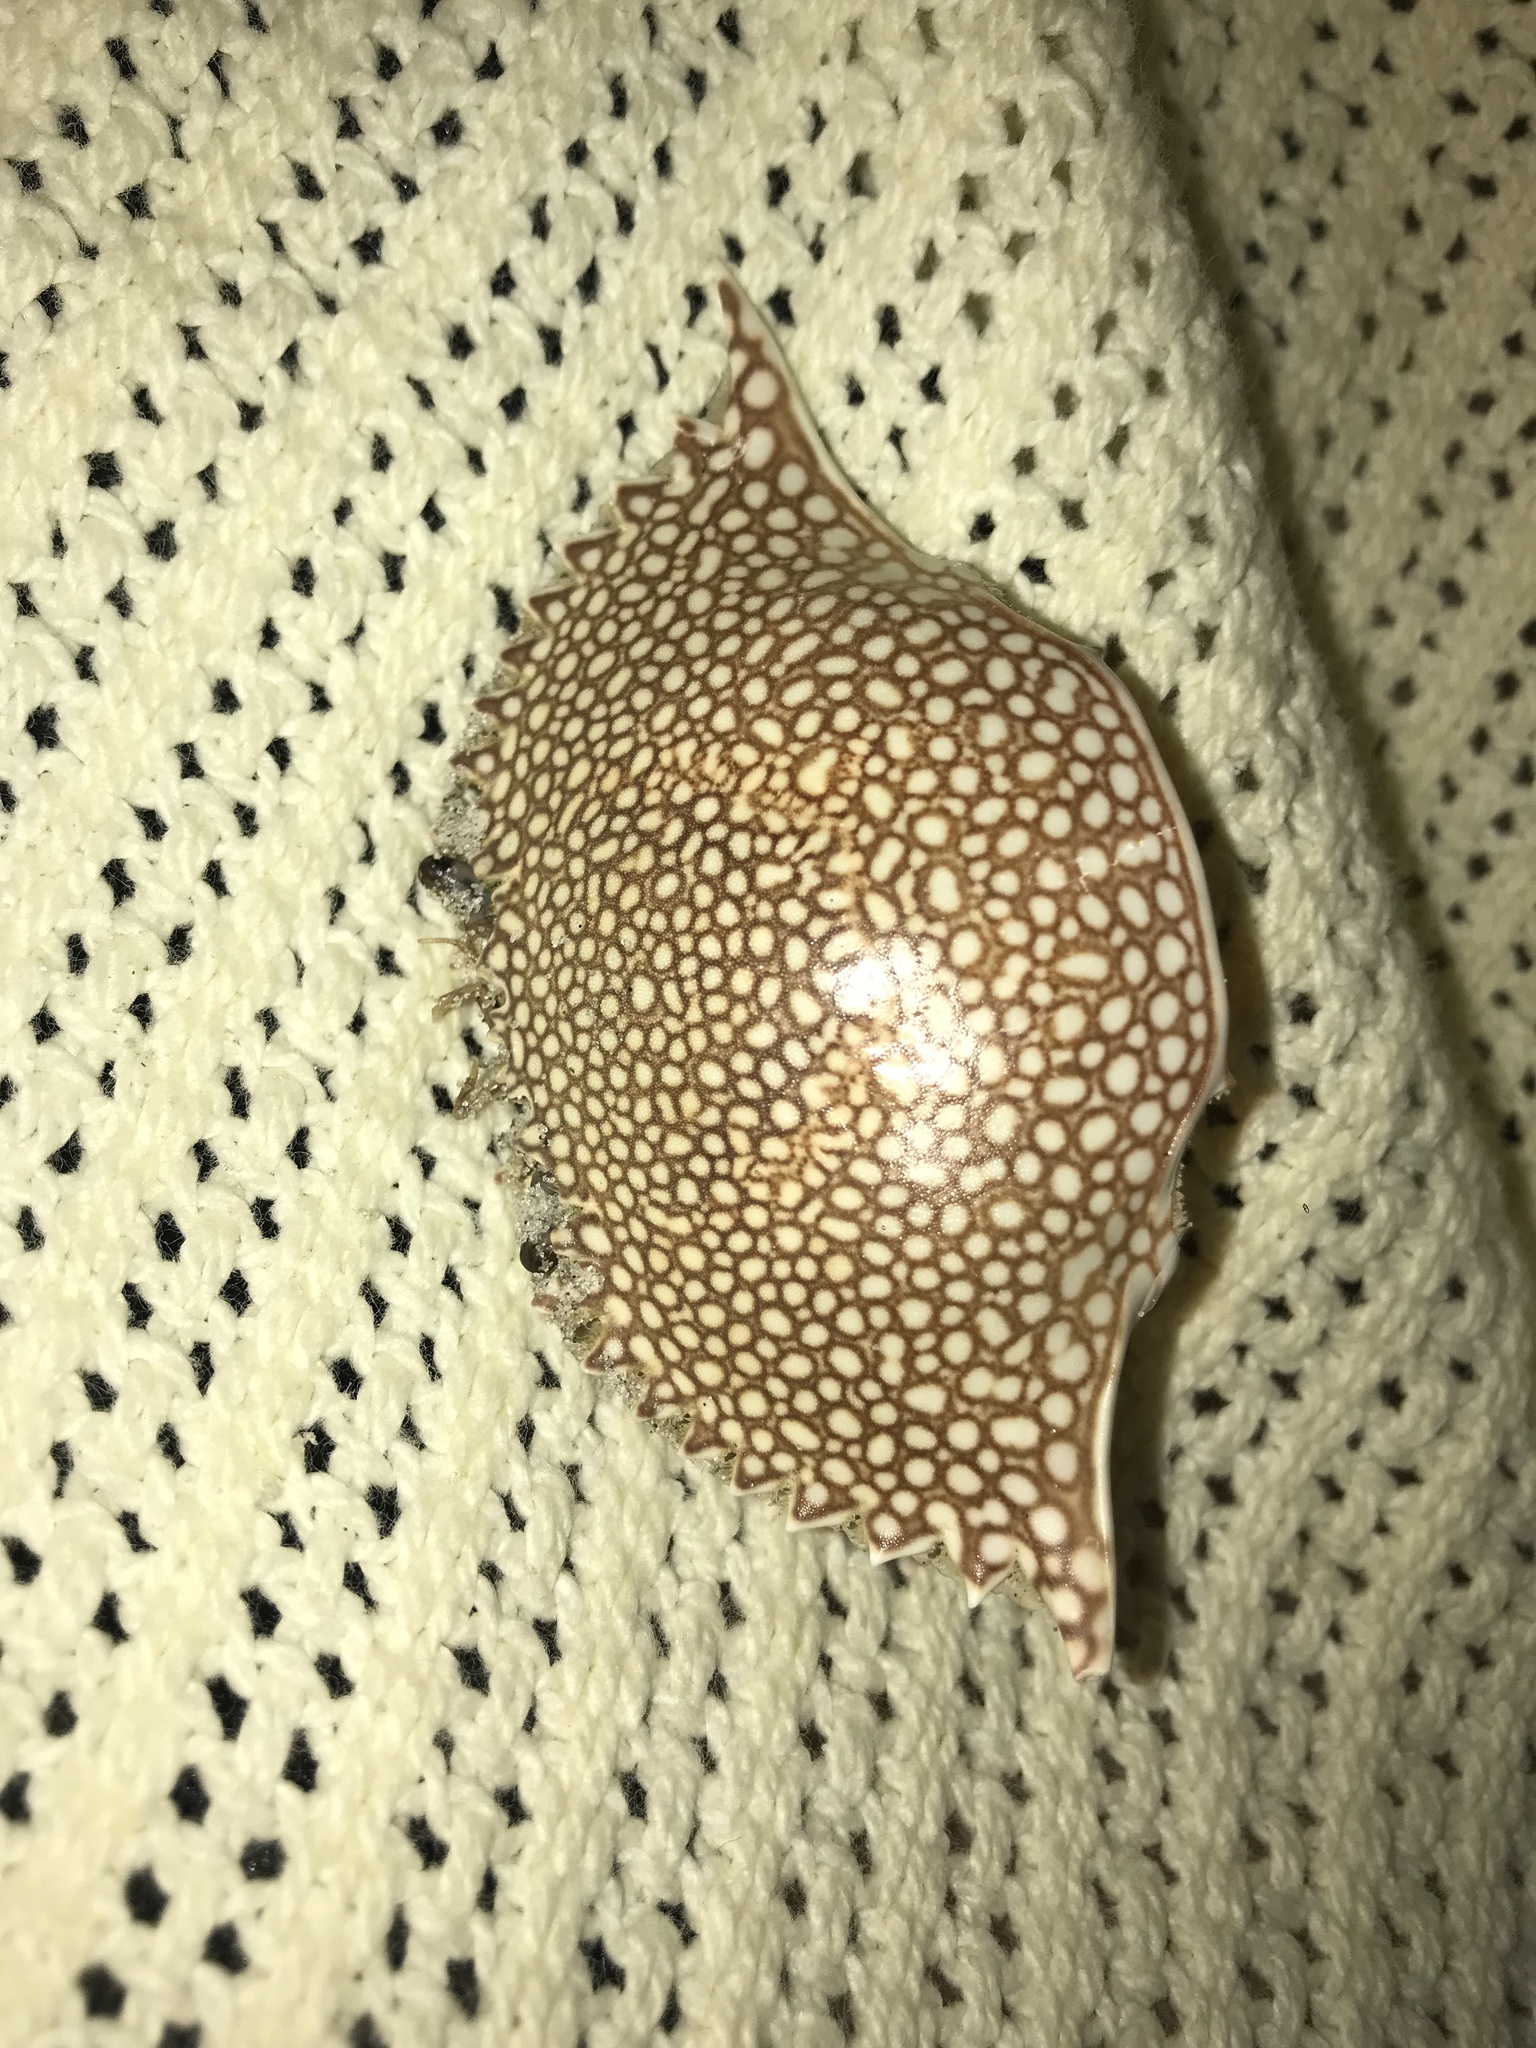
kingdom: Animalia
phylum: Arthropoda
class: Malacostraca
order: Decapoda
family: Portunidae
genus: Arenaeus
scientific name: Arenaeus cribrarius
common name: Speckled crab
